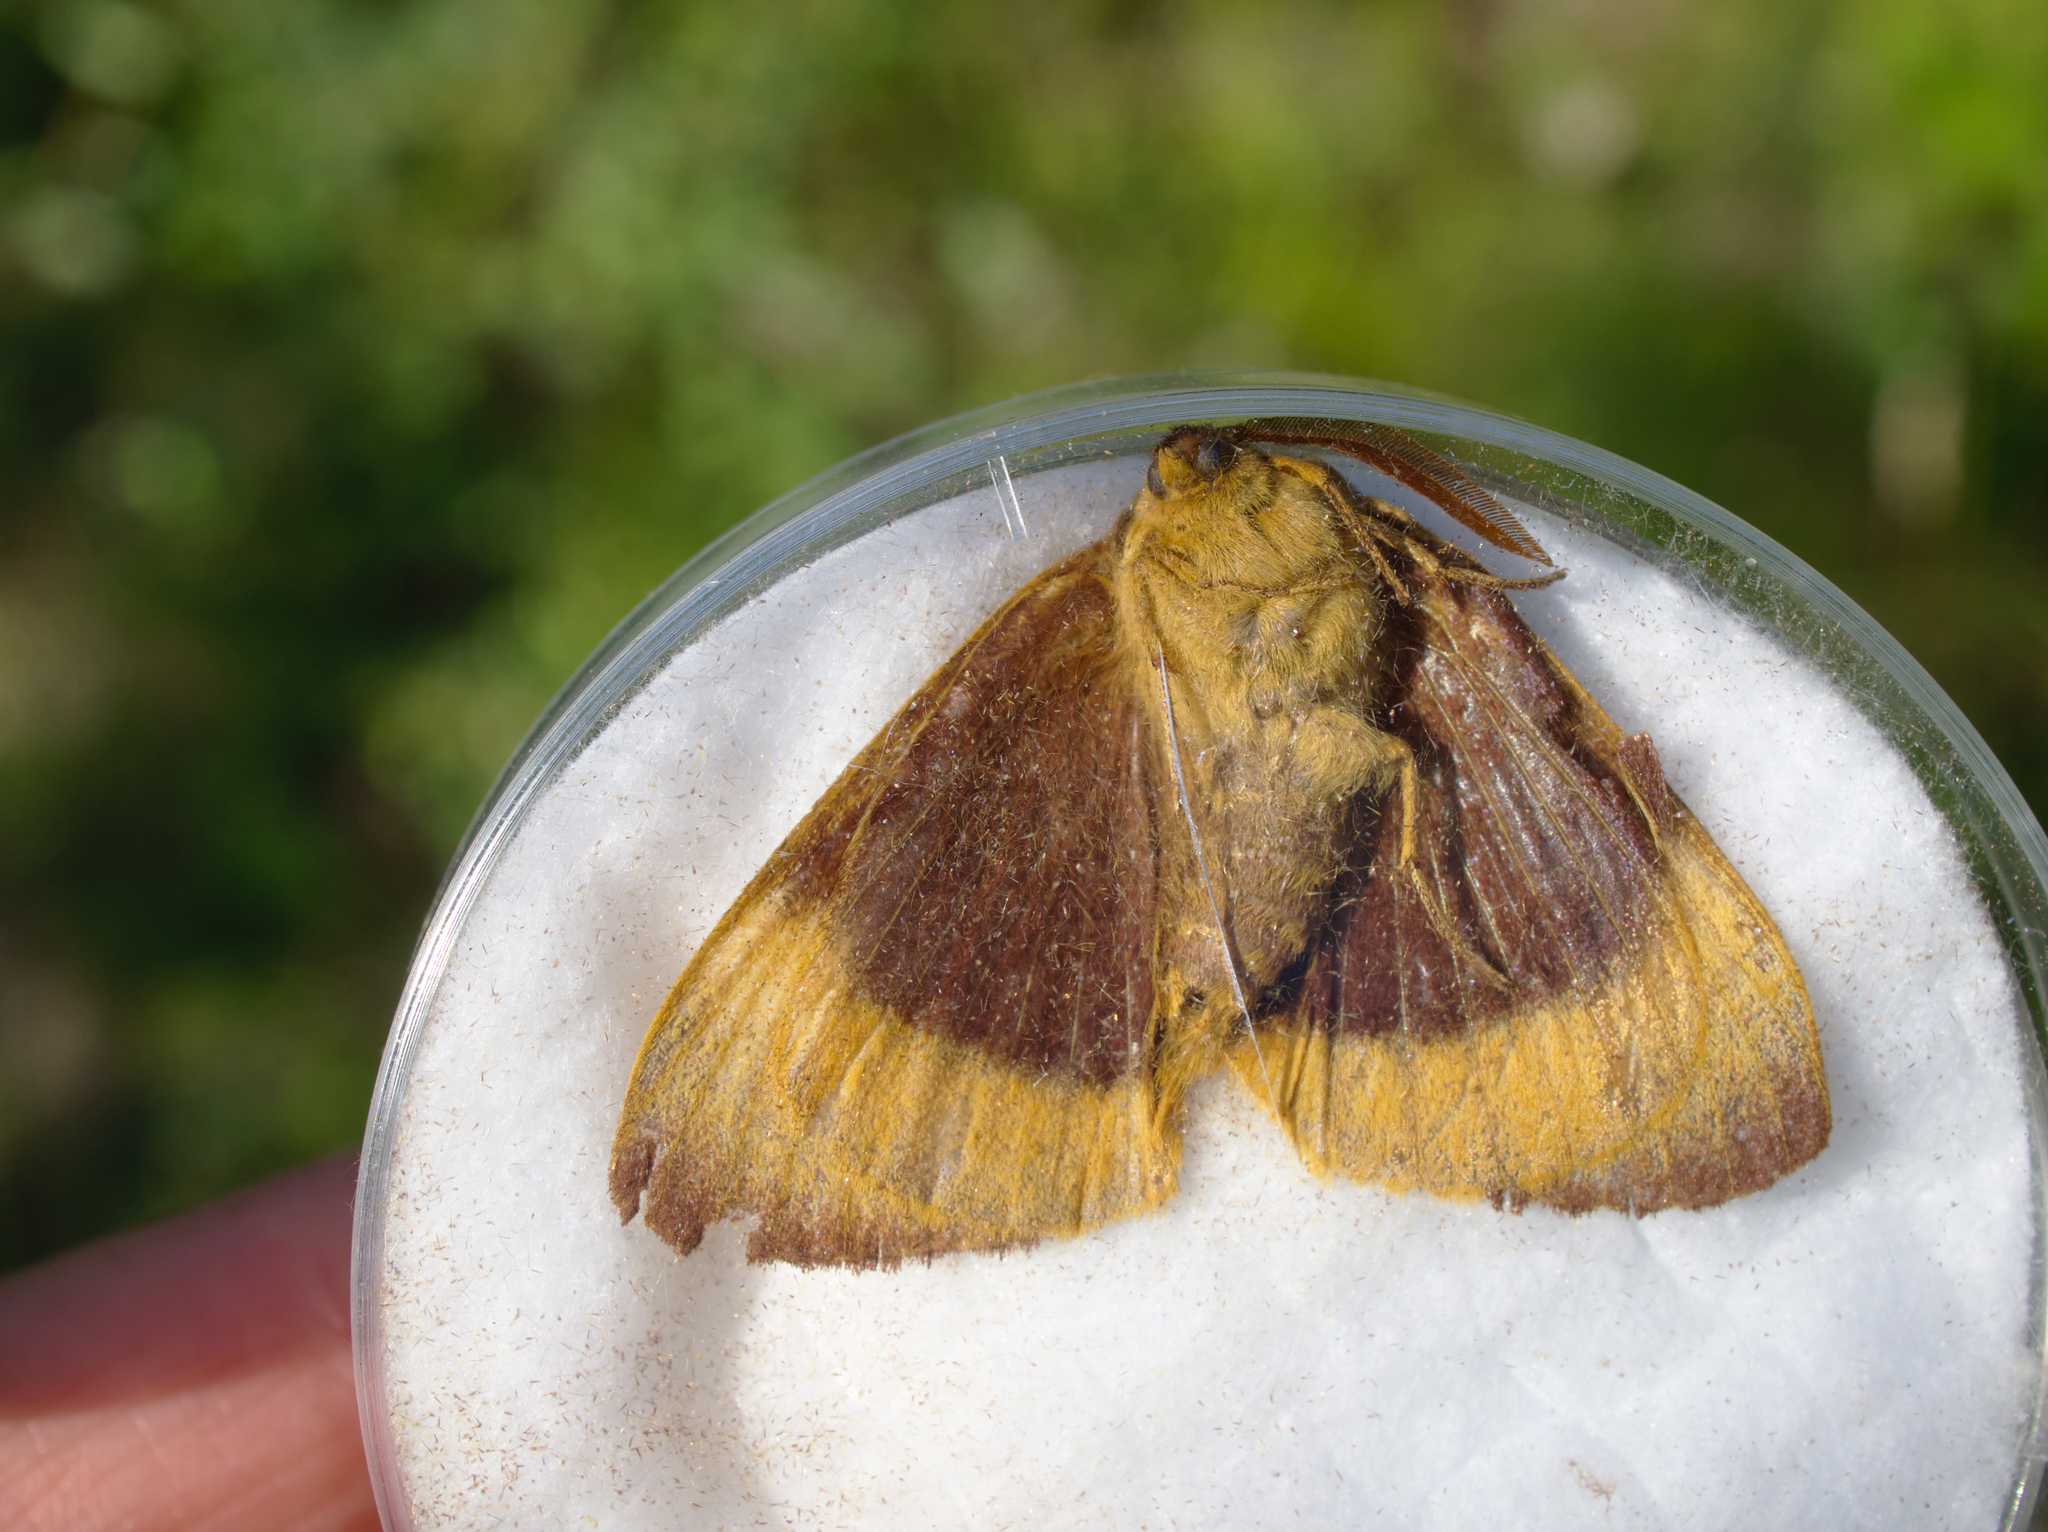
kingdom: Animalia
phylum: Arthropoda
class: Insecta
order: Lepidoptera
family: Lasiocampidae
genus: Lasiocampa
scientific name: Lasiocampa quercus
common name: Oak eggar
